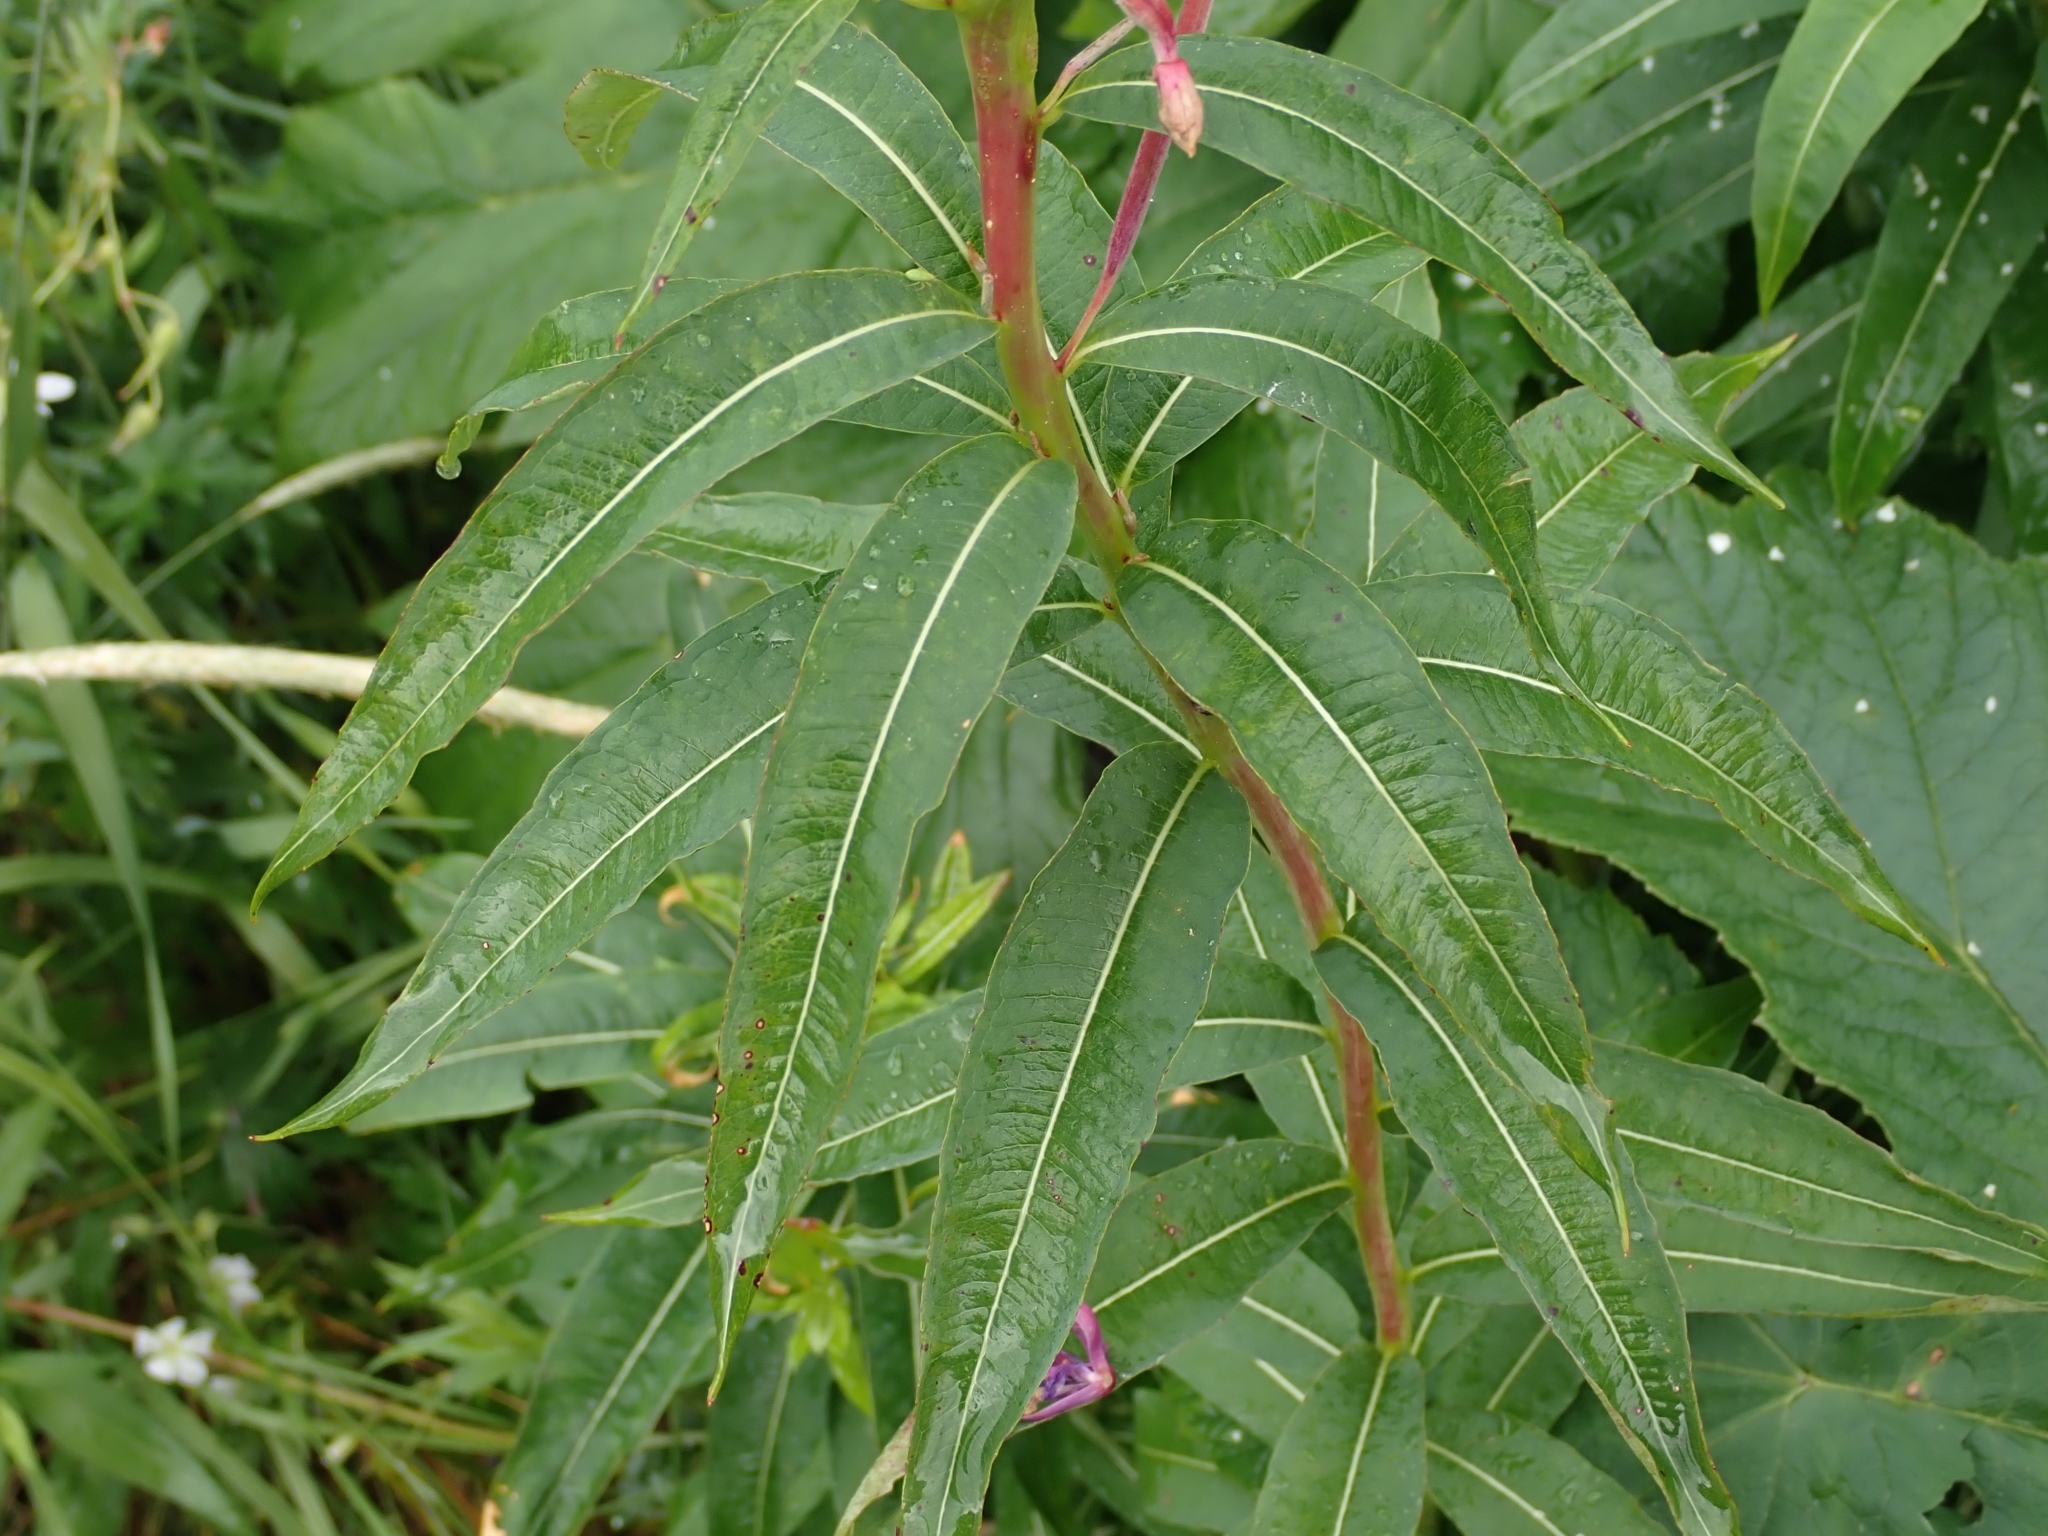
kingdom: Plantae
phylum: Tracheophyta
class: Magnoliopsida
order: Myrtales
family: Onagraceae
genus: Chamaenerion
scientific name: Chamaenerion angustifolium
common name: Fireweed
